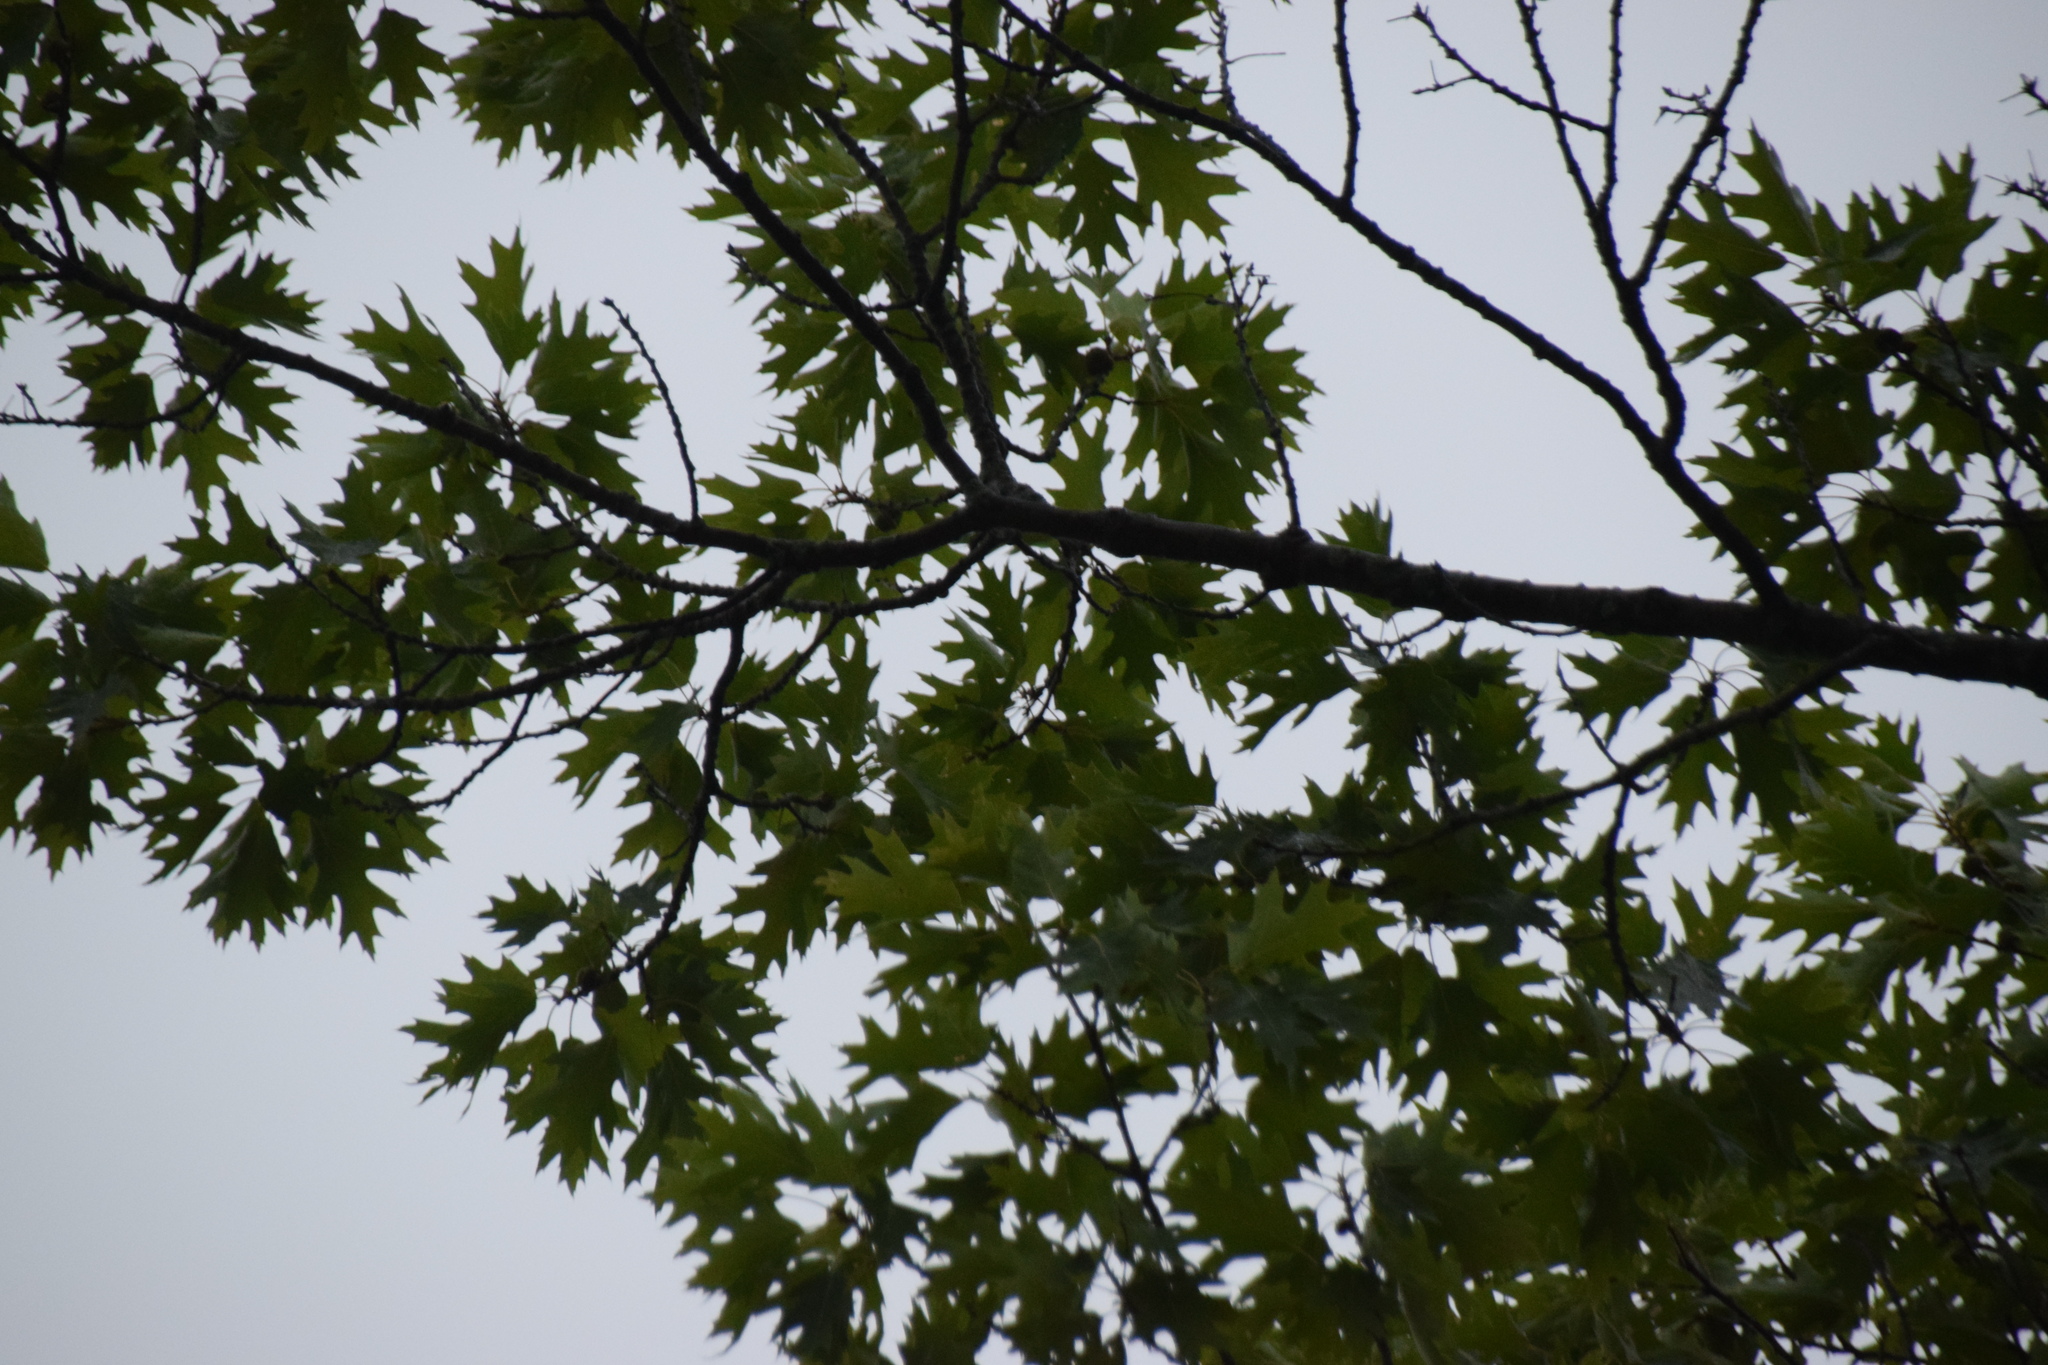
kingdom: Plantae
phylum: Tracheophyta
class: Magnoliopsida
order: Fagales
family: Fagaceae
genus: Quercus
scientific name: Quercus rubra
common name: Red oak
